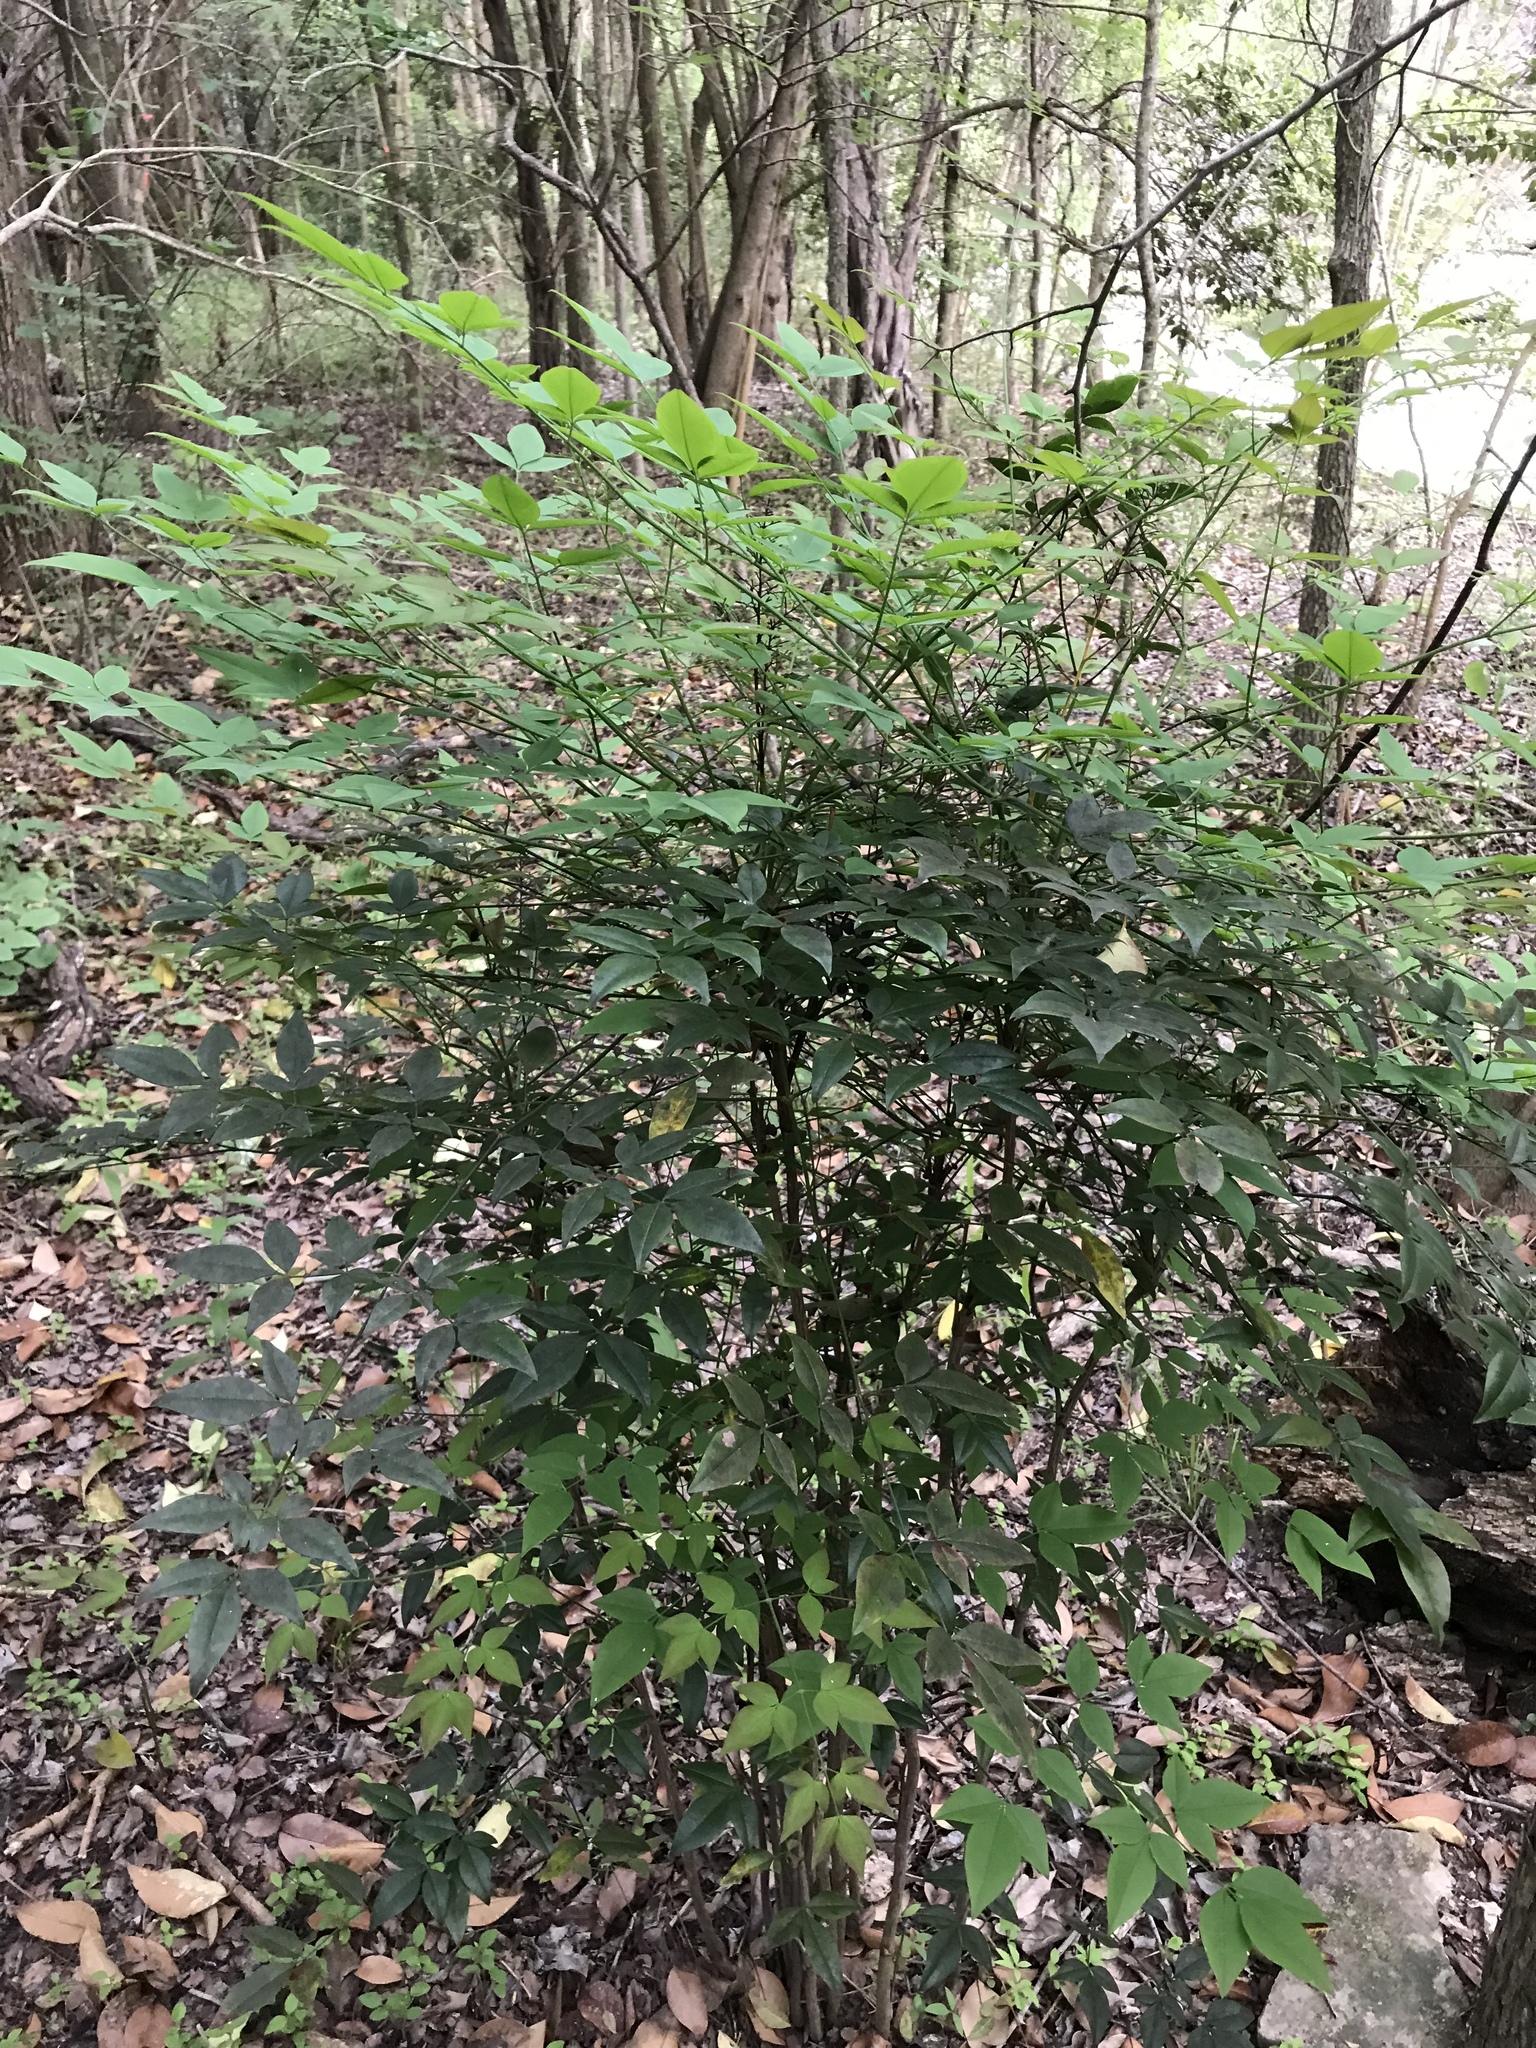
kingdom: Plantae
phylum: Tracheophyta
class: Magnoliopsida
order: Ranunculales
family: Berberidaceae
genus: Nandina
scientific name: Nandina domestica
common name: Sacred bamboo
